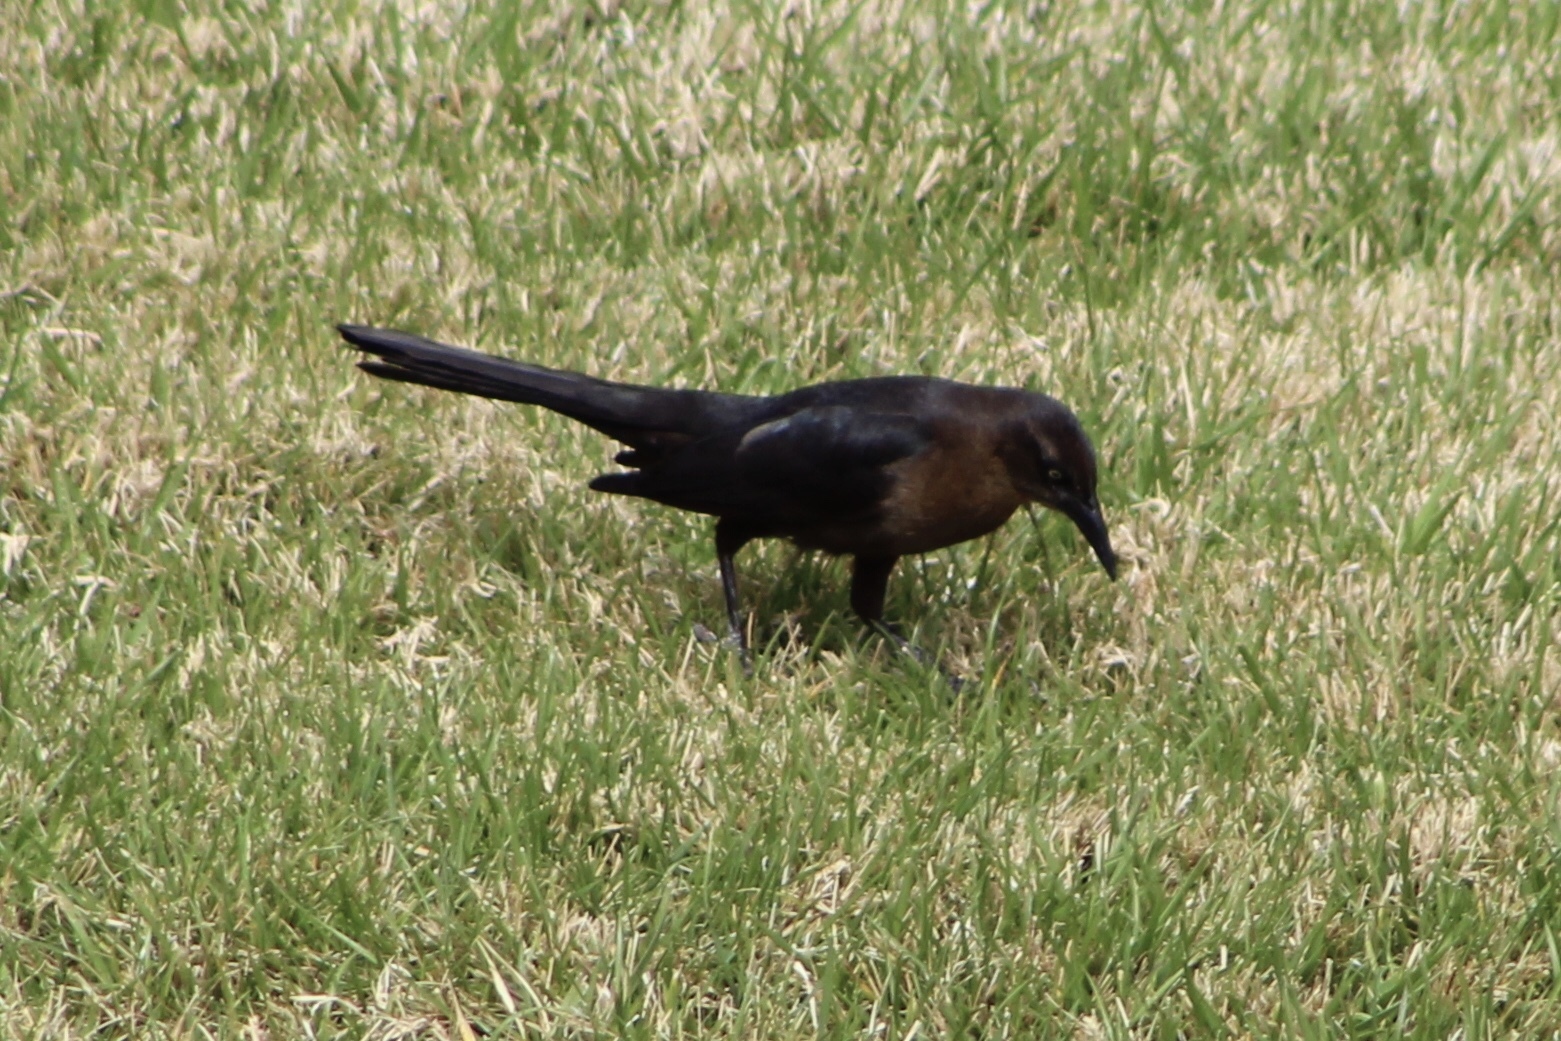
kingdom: Animalia
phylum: Chordata
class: Aves
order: Passeriformes
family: Icteridae
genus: Quiscalus
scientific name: Quiscalus mexicanus
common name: Great-tailed grackle
